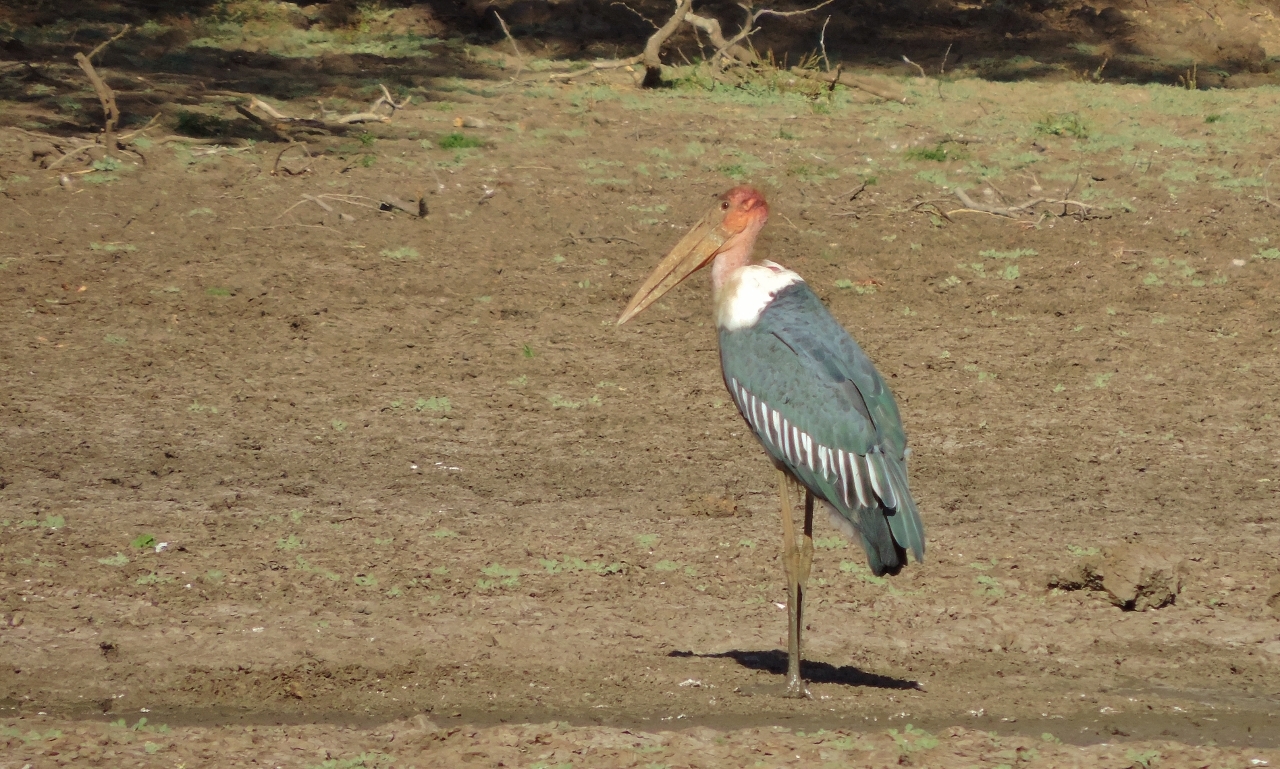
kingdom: Animalia
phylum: Chordata
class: Aves
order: Ciconiiformes
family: Ciconiidae
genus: Leptoptilos
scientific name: Leptoptilos crumenifer
